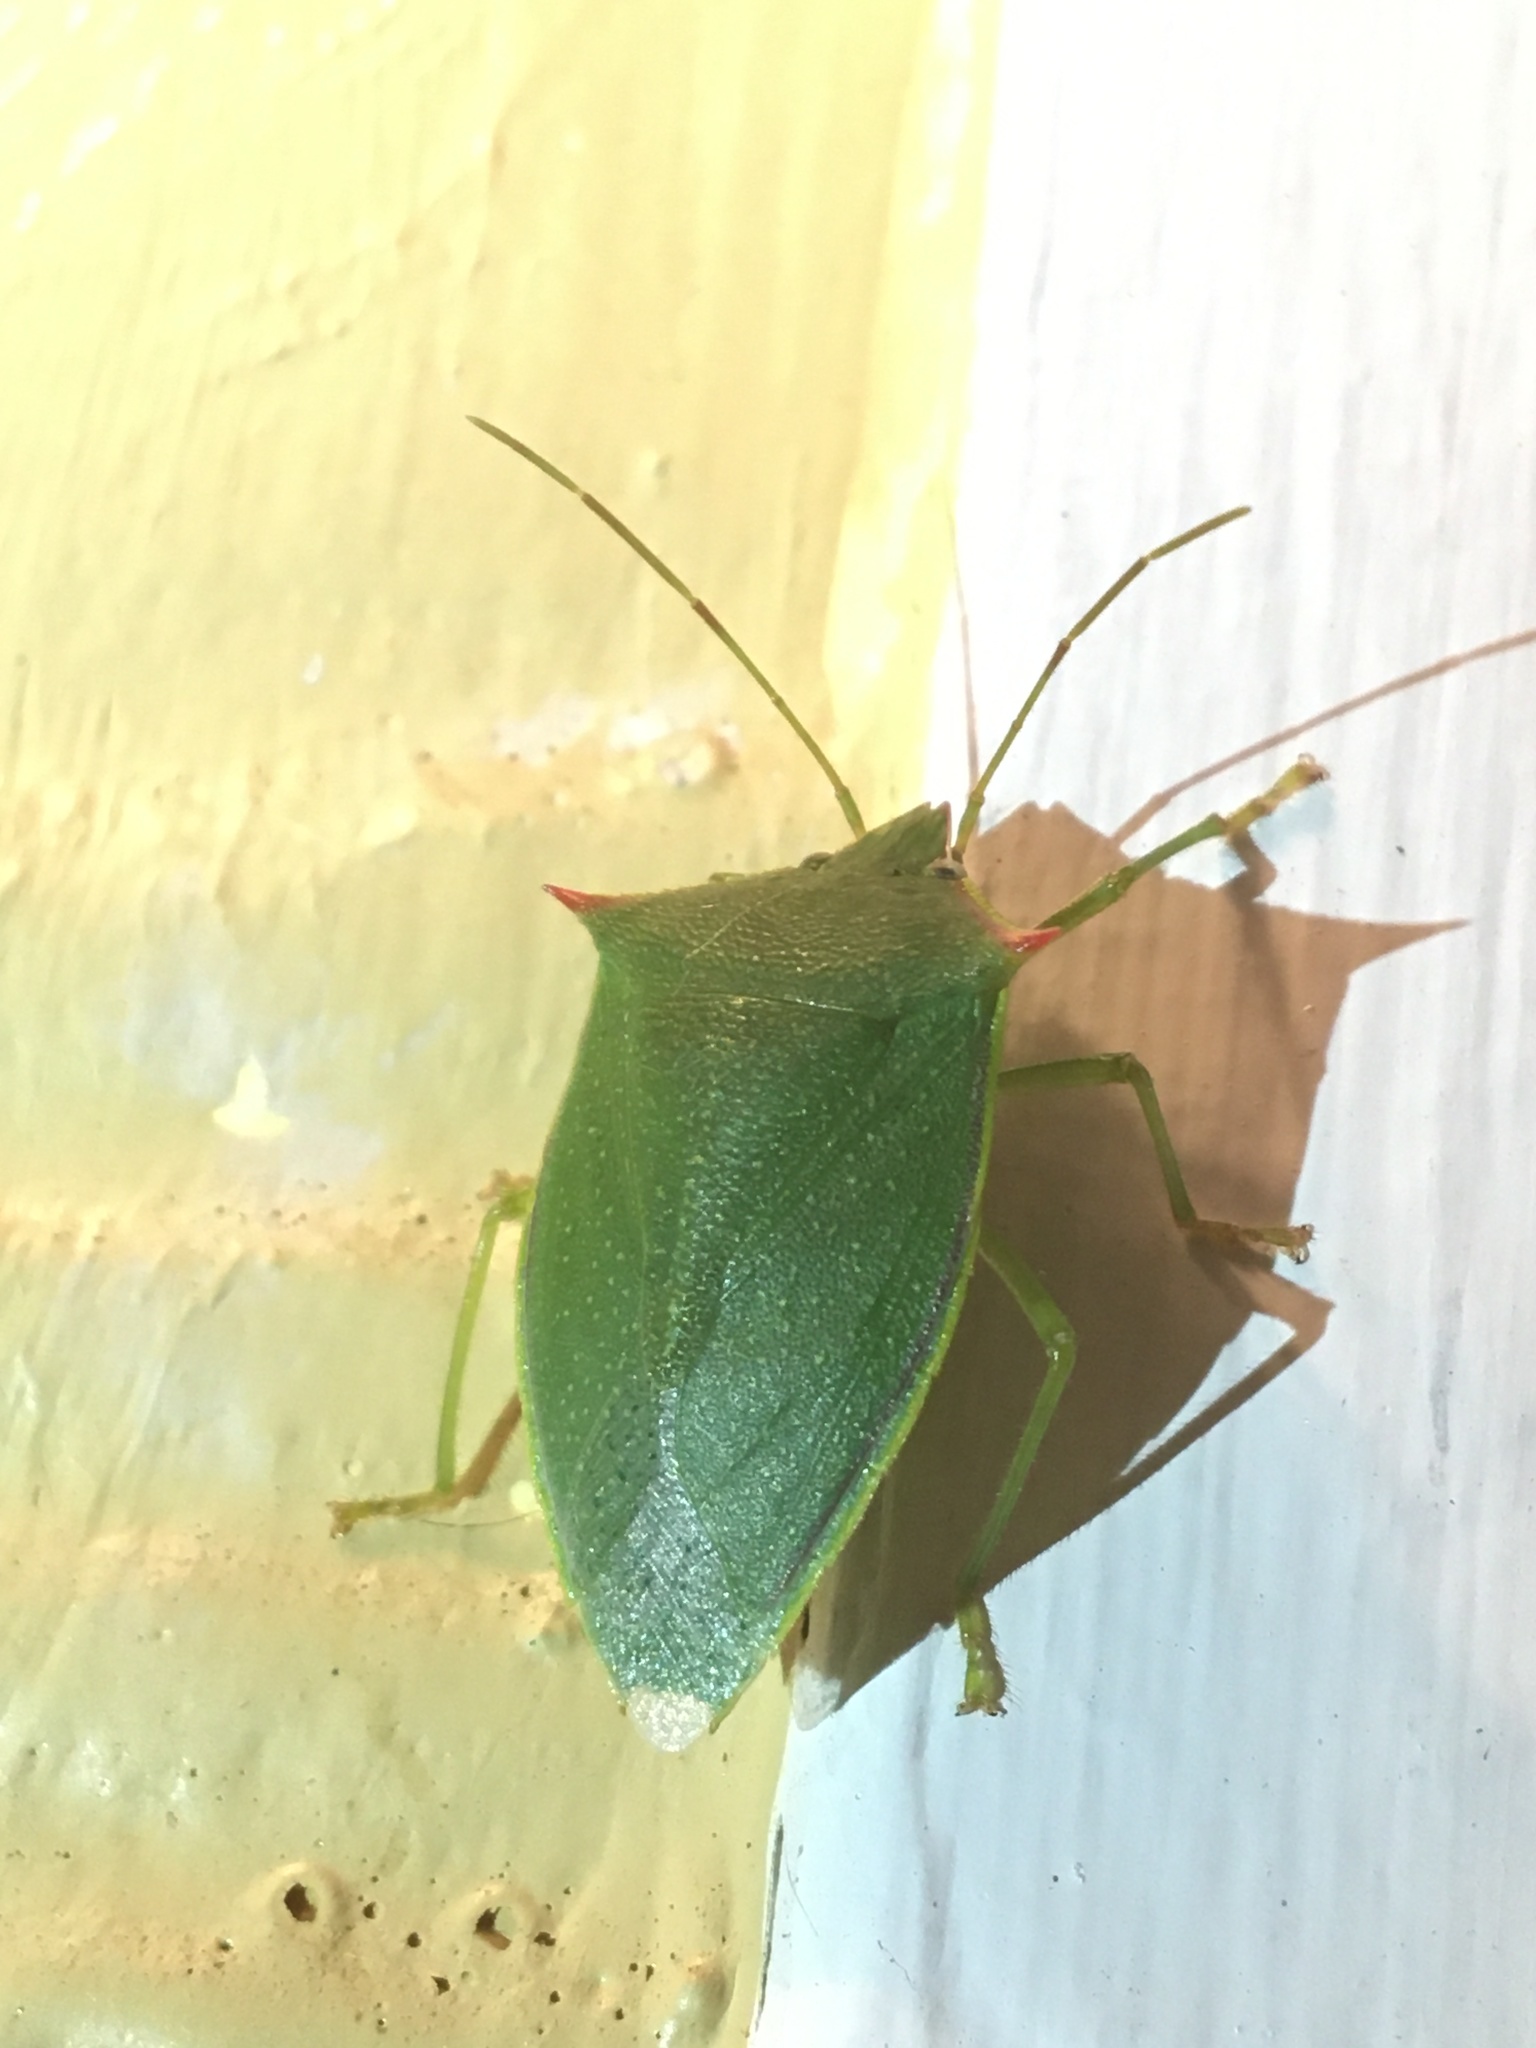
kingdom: Animalia
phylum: Arthropoda
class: Insecta
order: Hemiptera
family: Pentatomidae
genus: Loxa
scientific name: Loxa flavicollis
